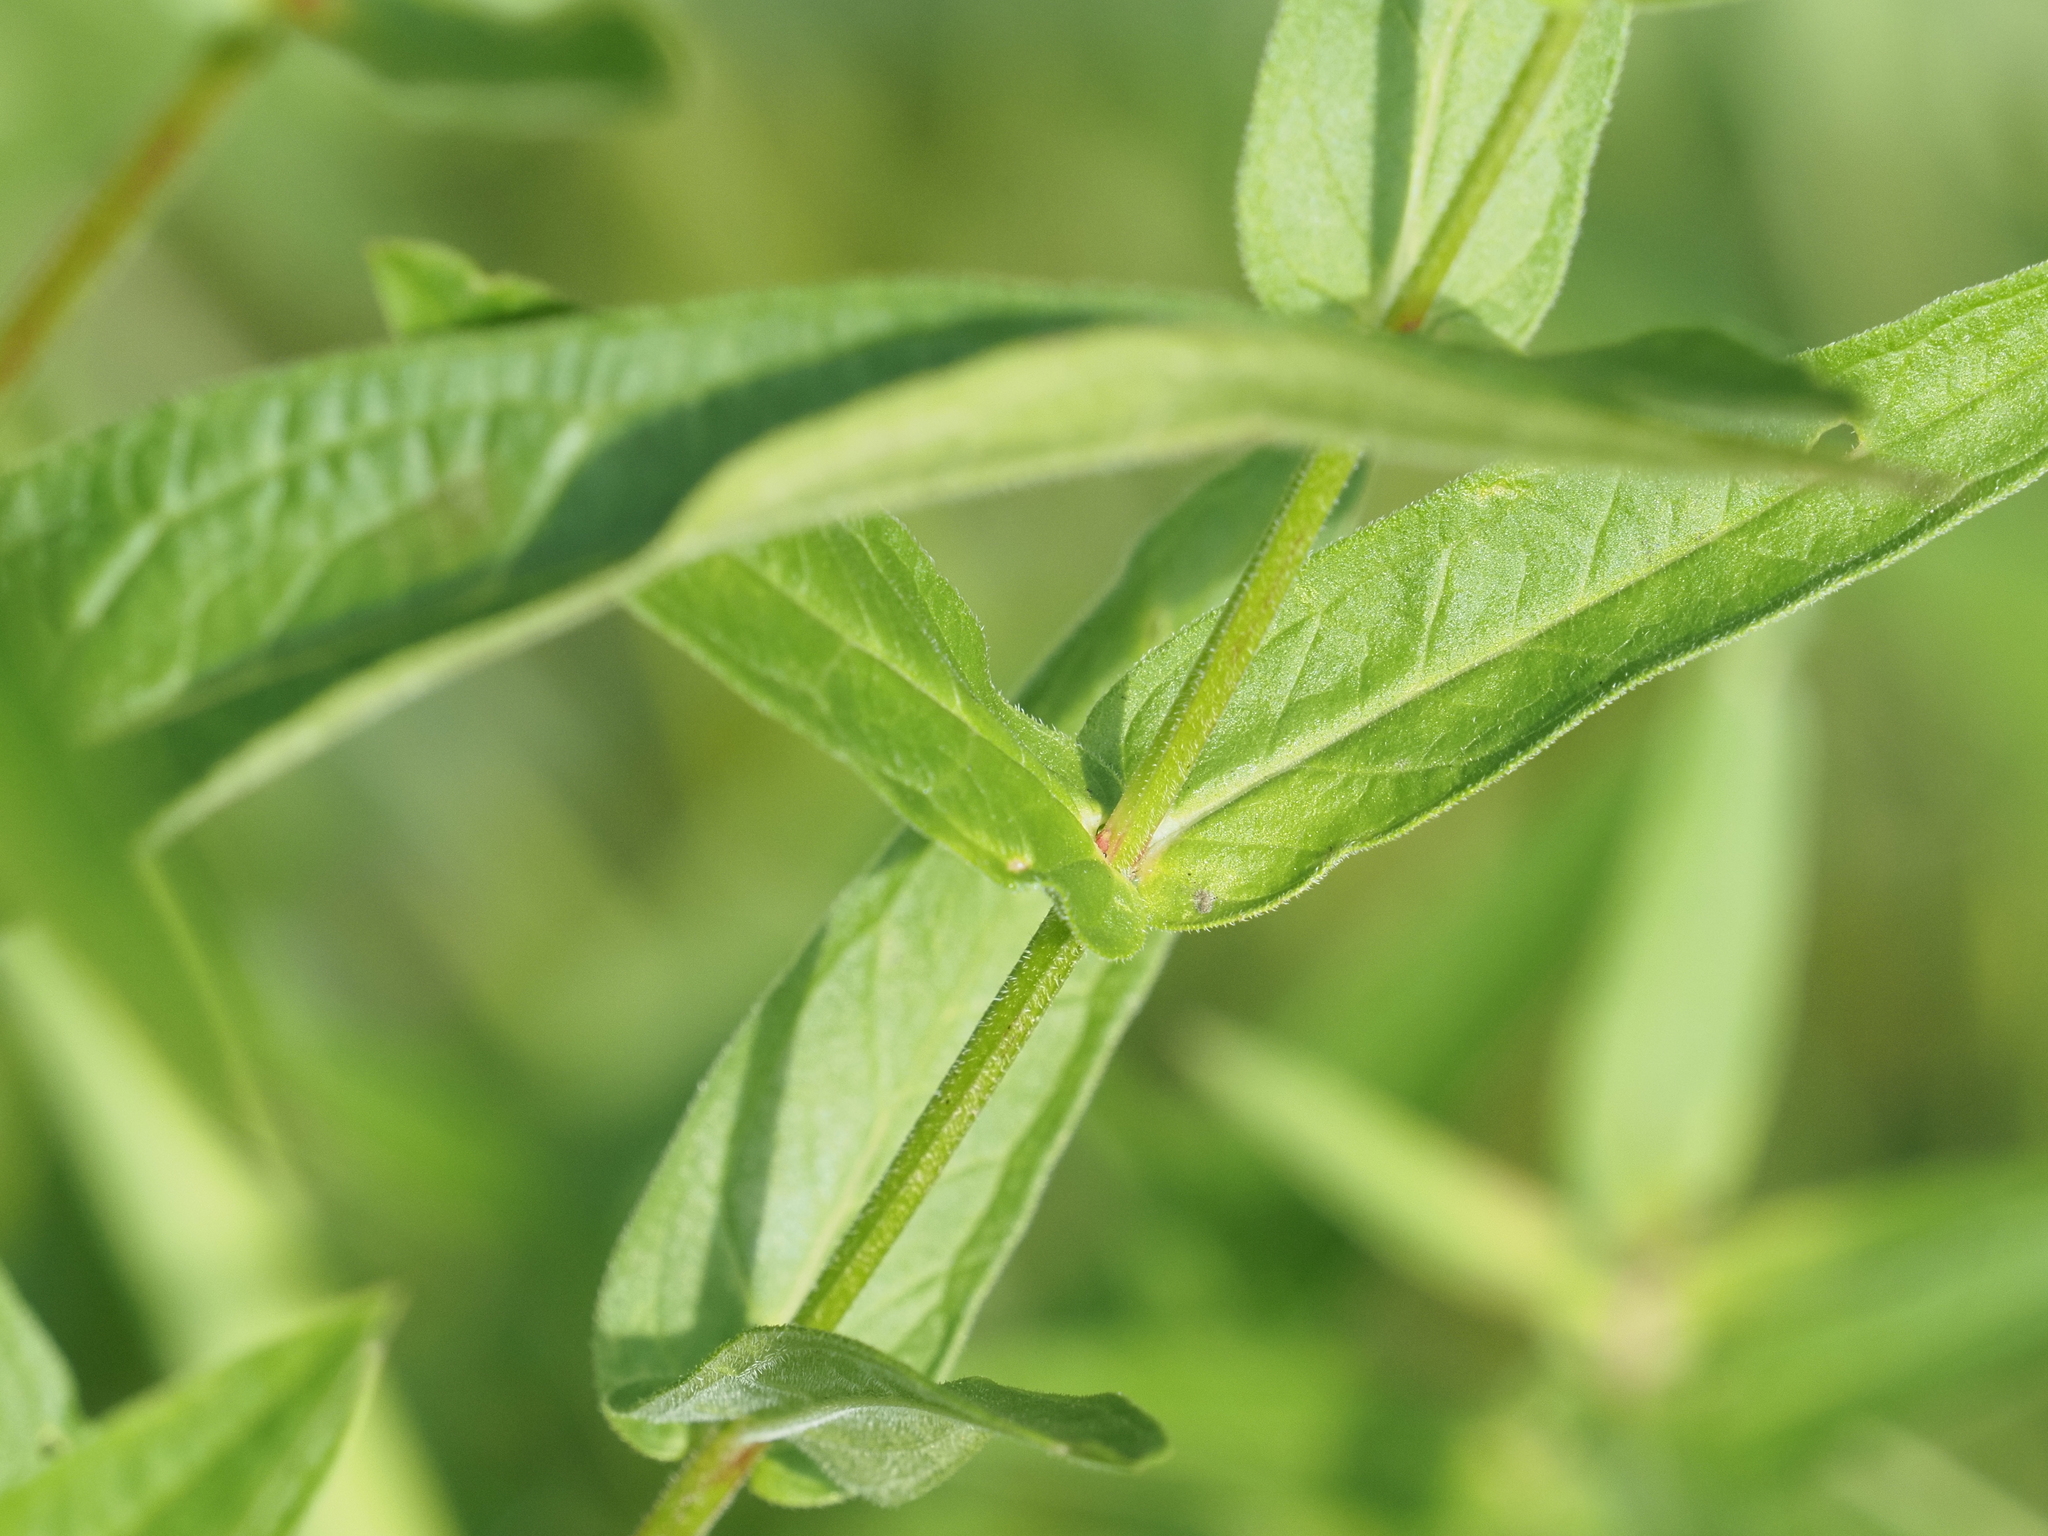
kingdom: Plantae
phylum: Tracheophyta
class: Magnoliopsida
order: Myrtales
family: Lythraceae
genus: Lythrum
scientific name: Lythrum salicaria
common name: Purple loosestrife
